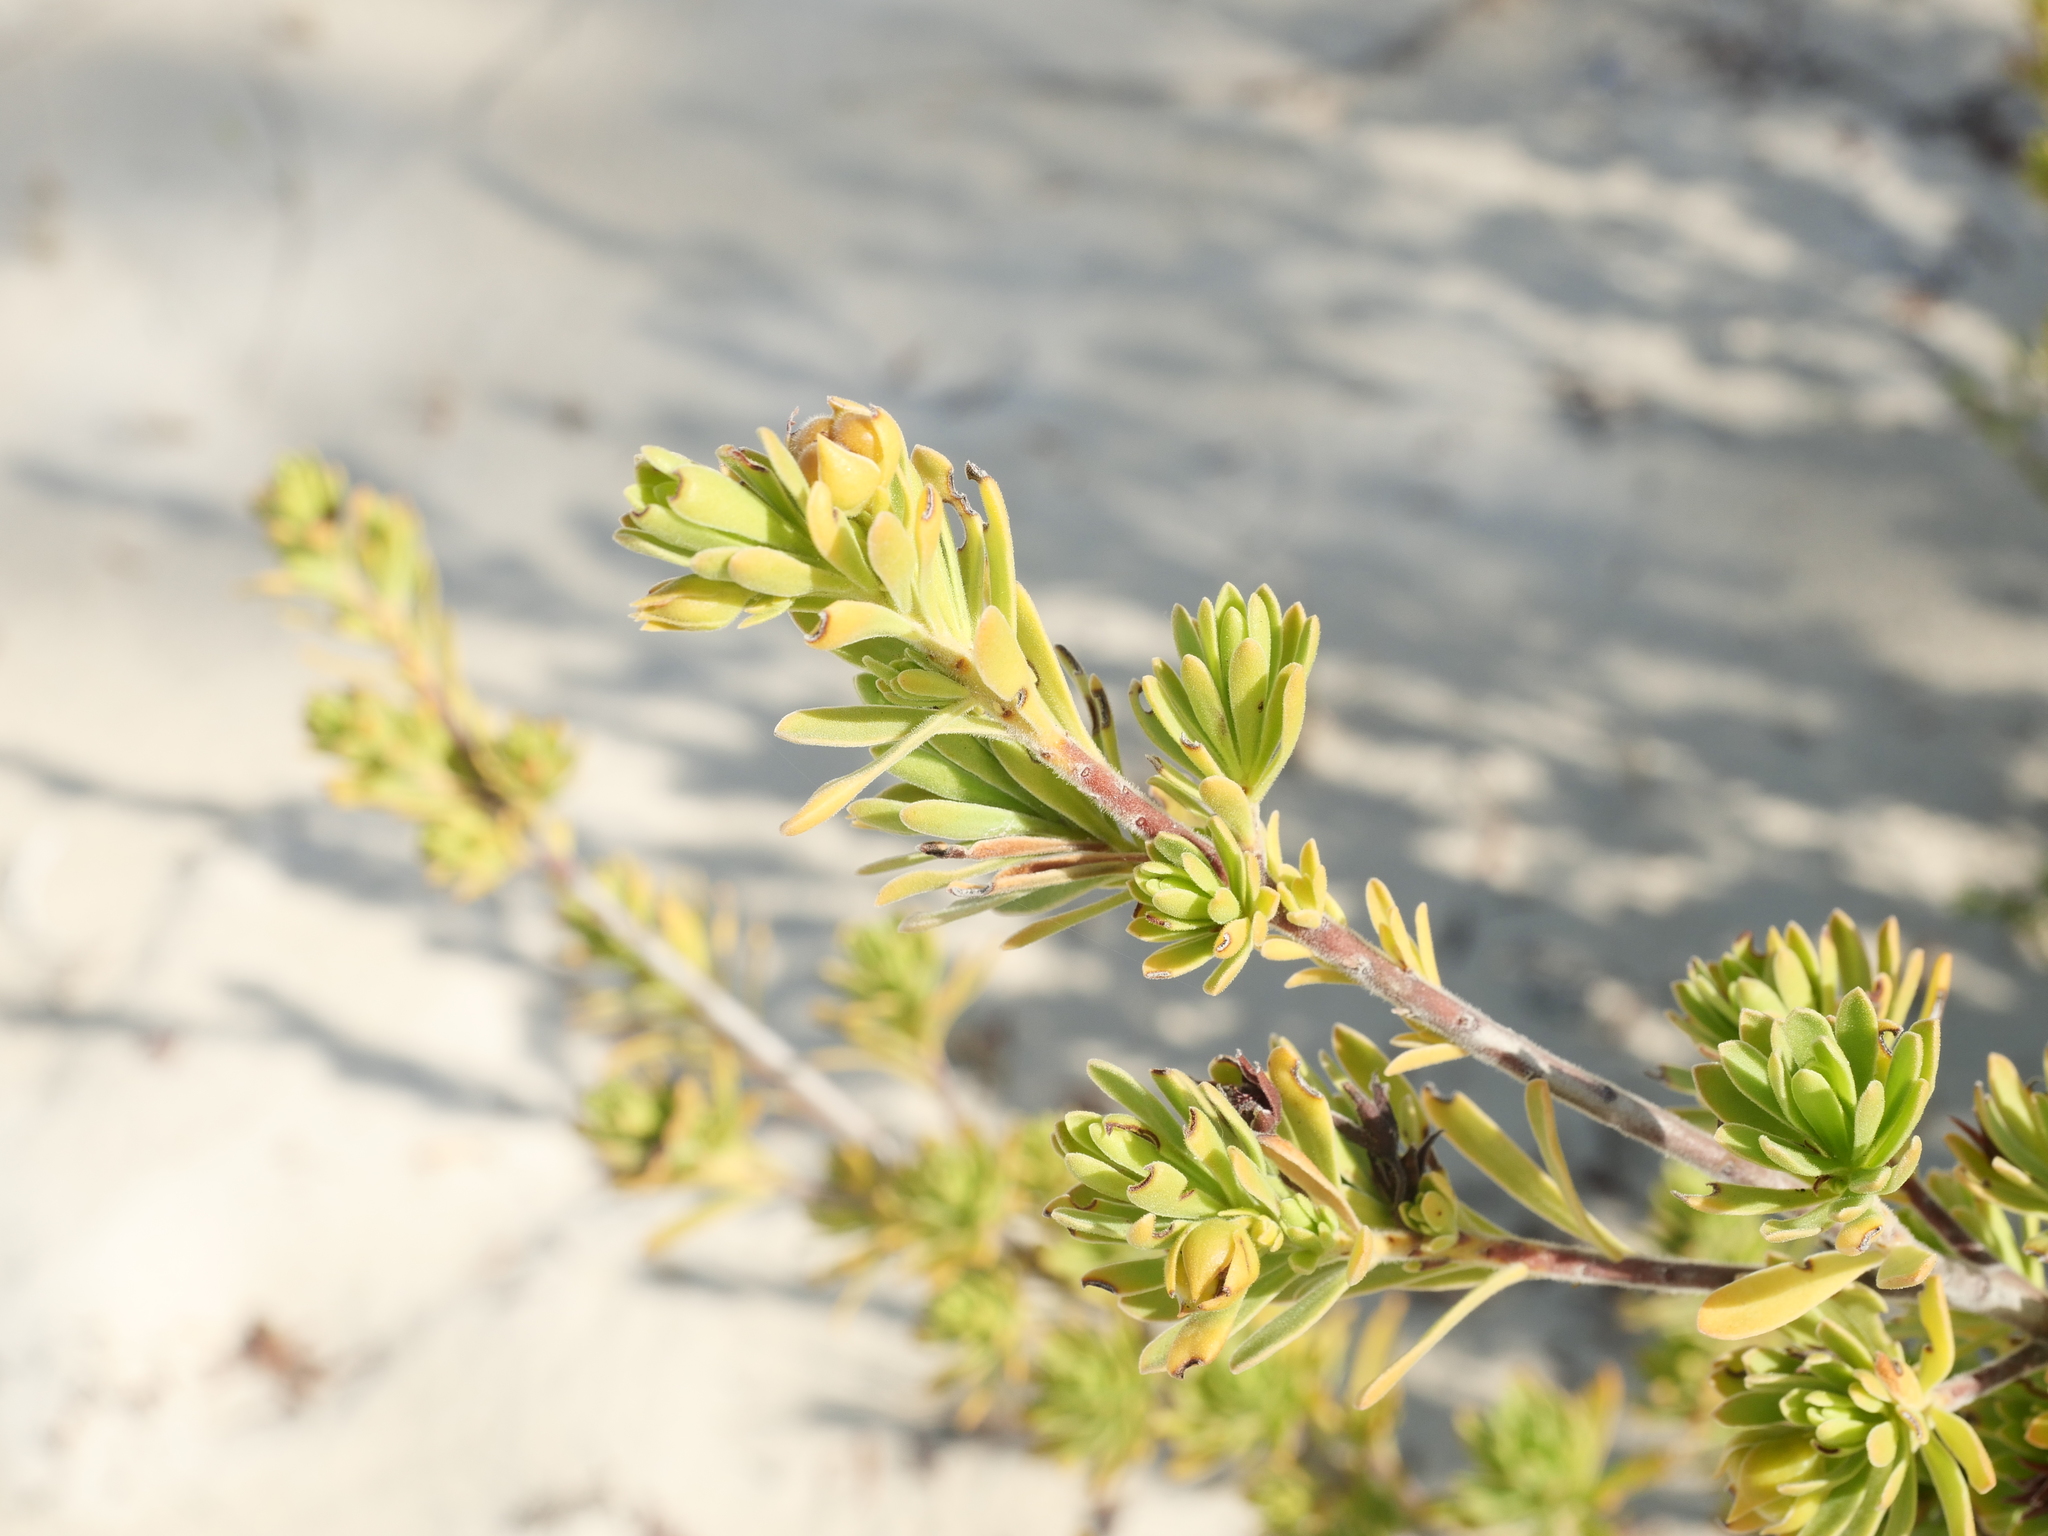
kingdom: Plantae
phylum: Tracheophyta
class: Magnoliopsida
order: Fabales
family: Surianaceae
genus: Suriana
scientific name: Suriana maritima
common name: Bay-cedar
